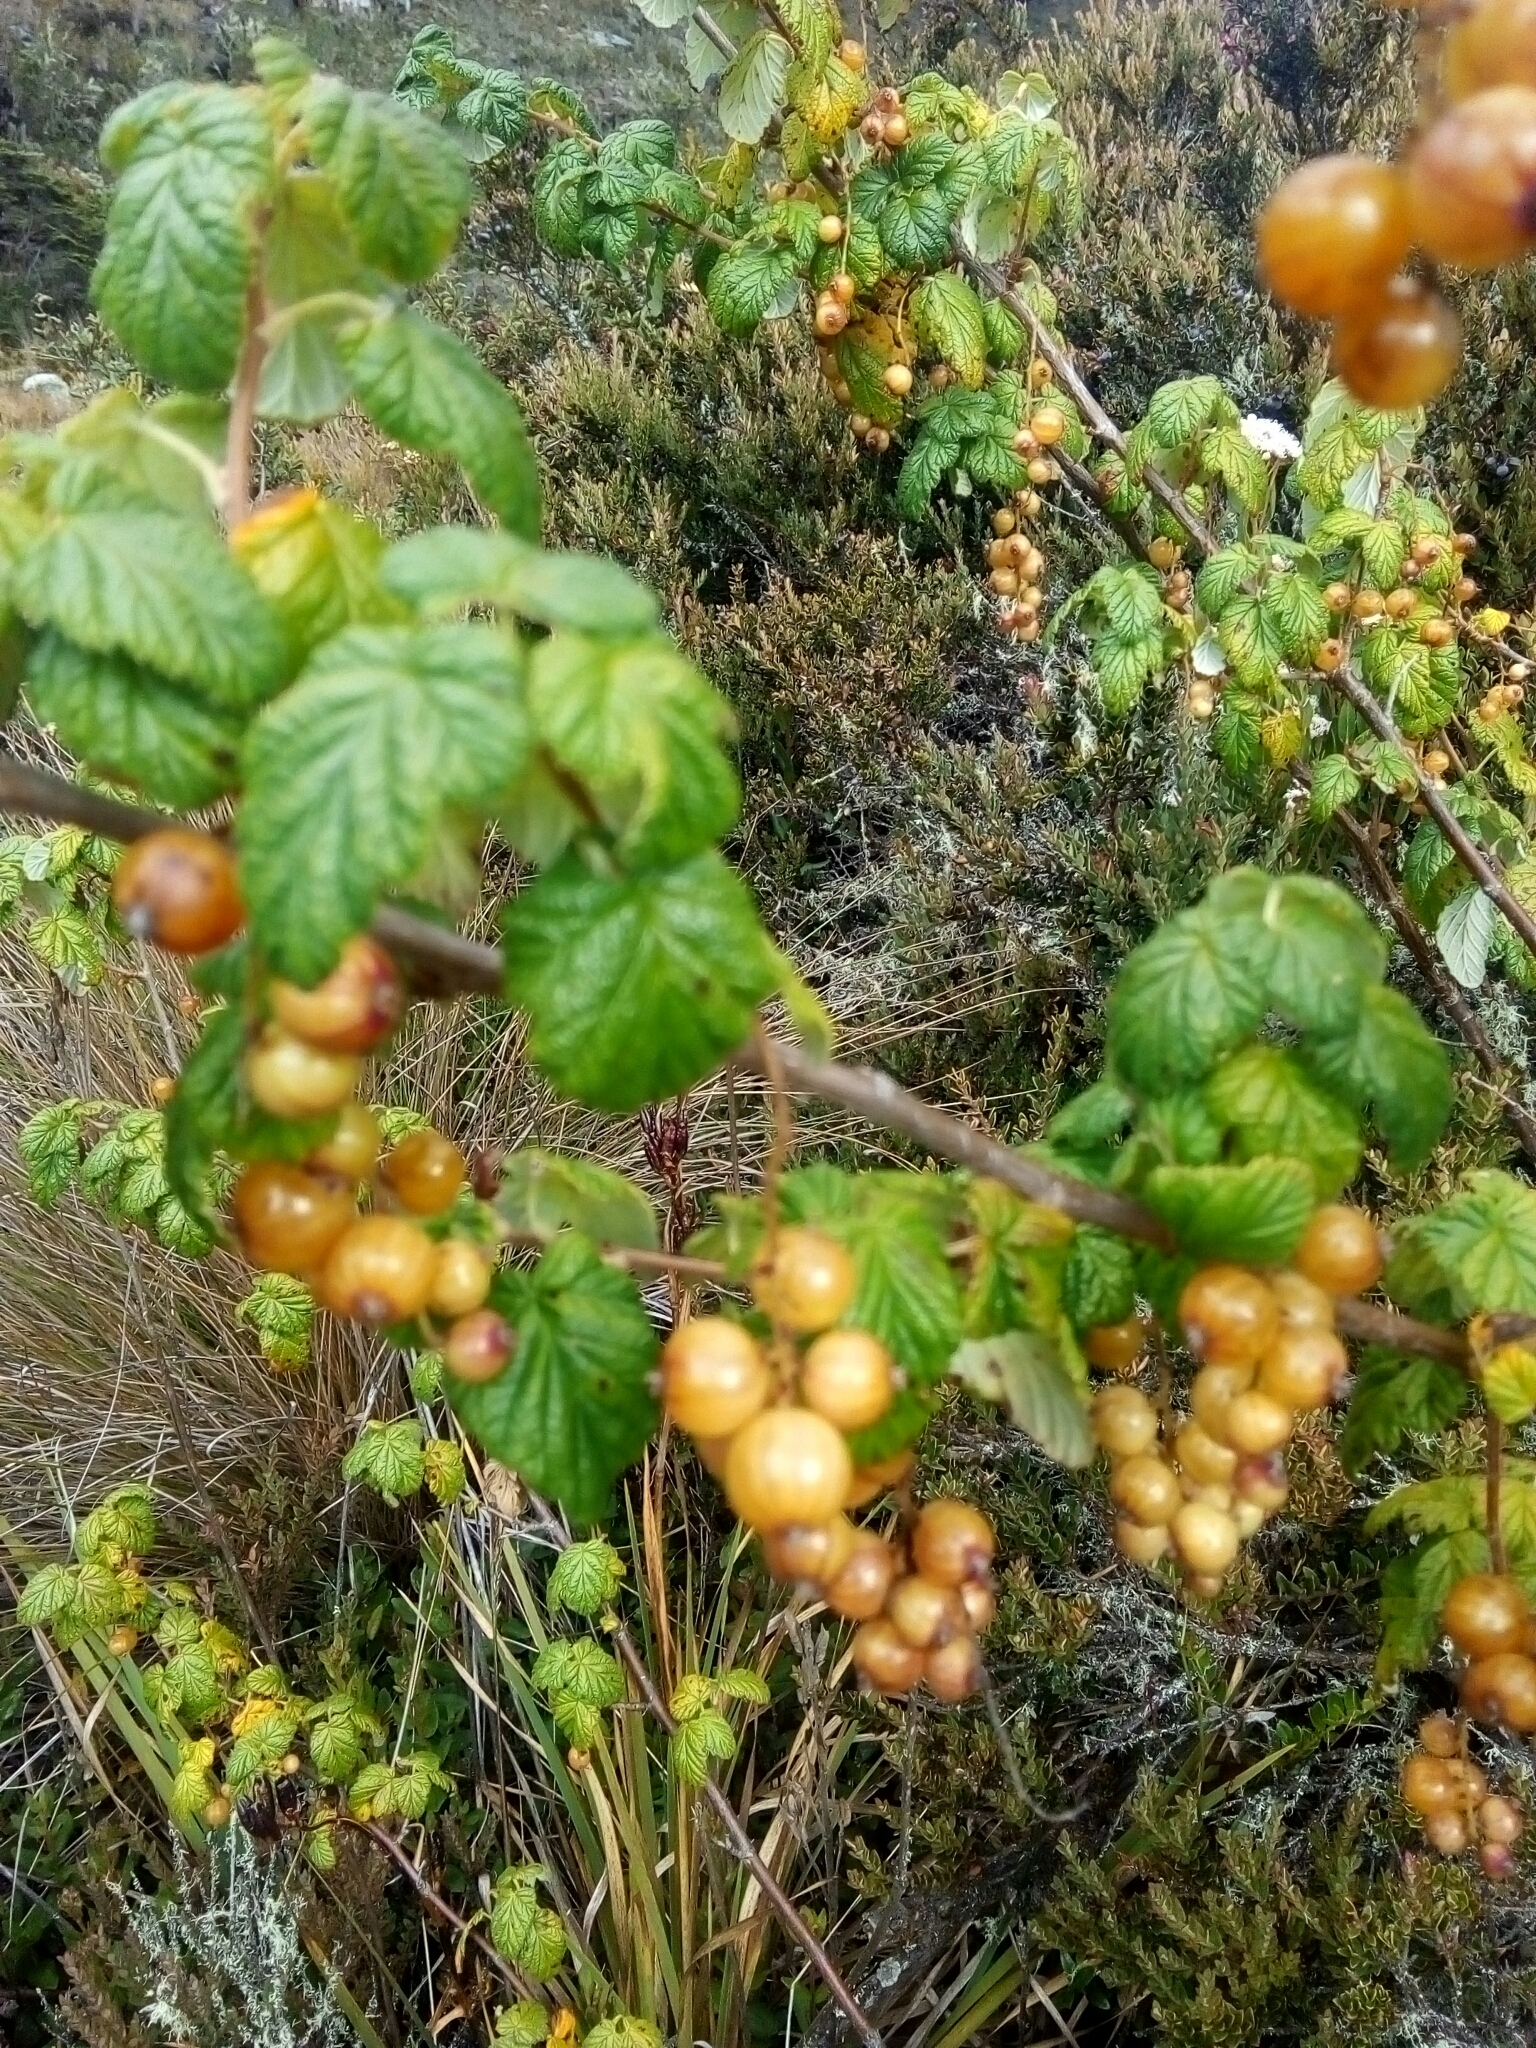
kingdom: Plantae
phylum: Tracheophyta
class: Magnoliopsida
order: Saxifragales
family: Grossulariaceae
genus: Ribes
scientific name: Ribes bogotanum
